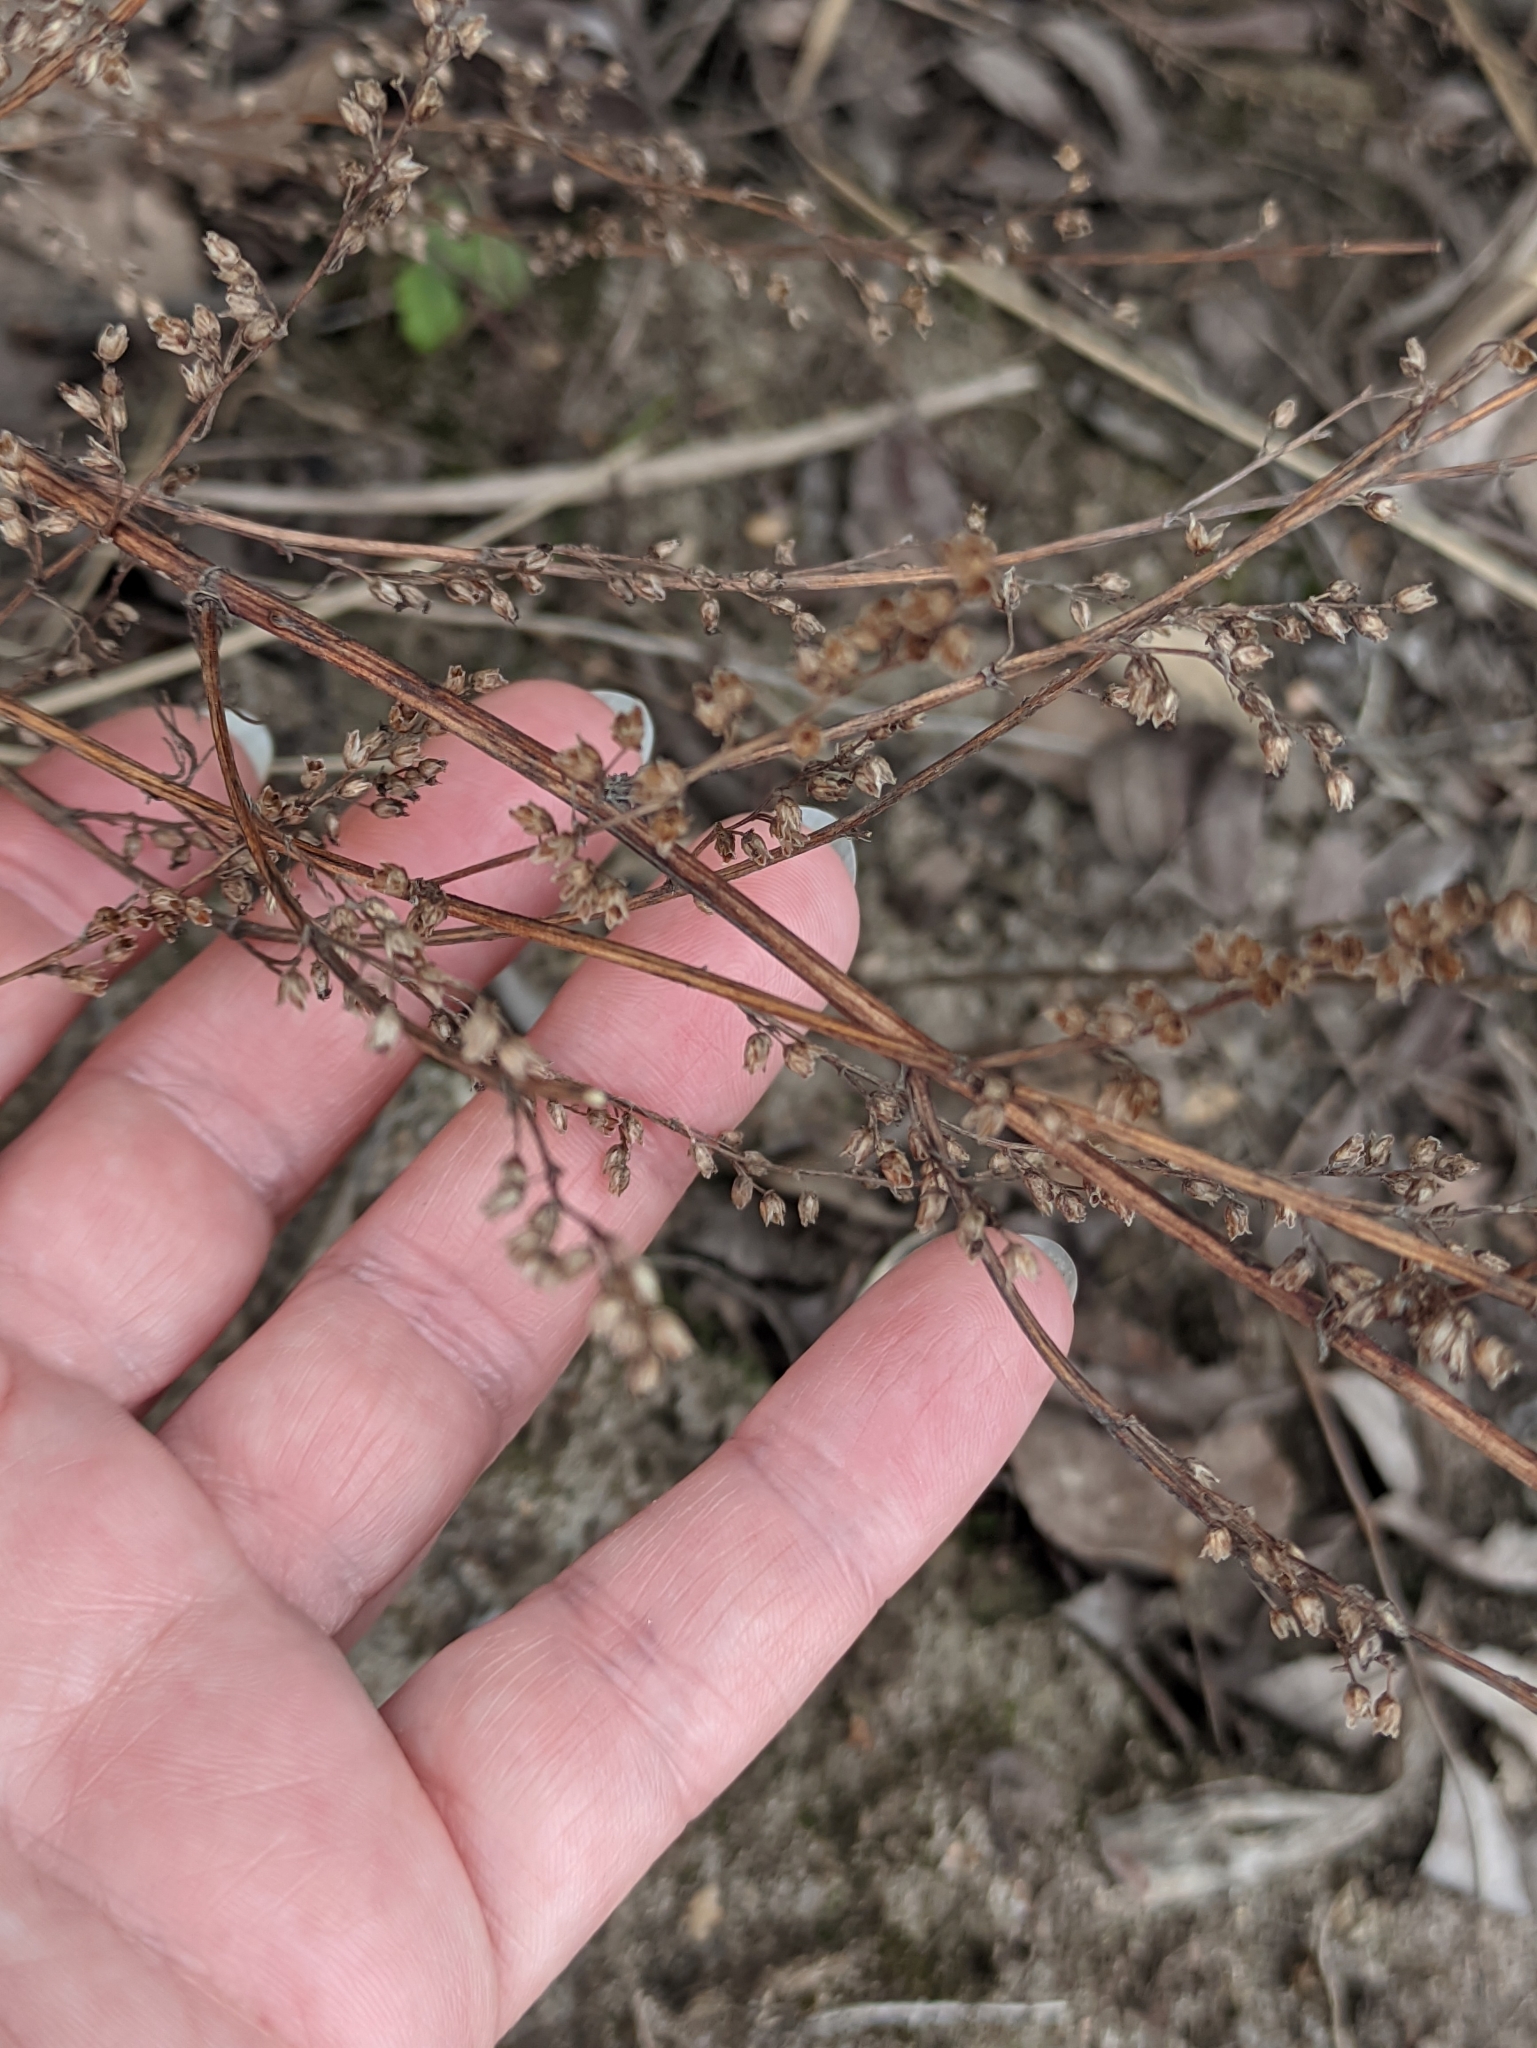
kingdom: Plantae
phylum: Tracheophyta
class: Magnoliopsida
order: Asterales
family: Asteraceae
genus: Artemisia
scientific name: Artemisia campestris
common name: Field wormwood
